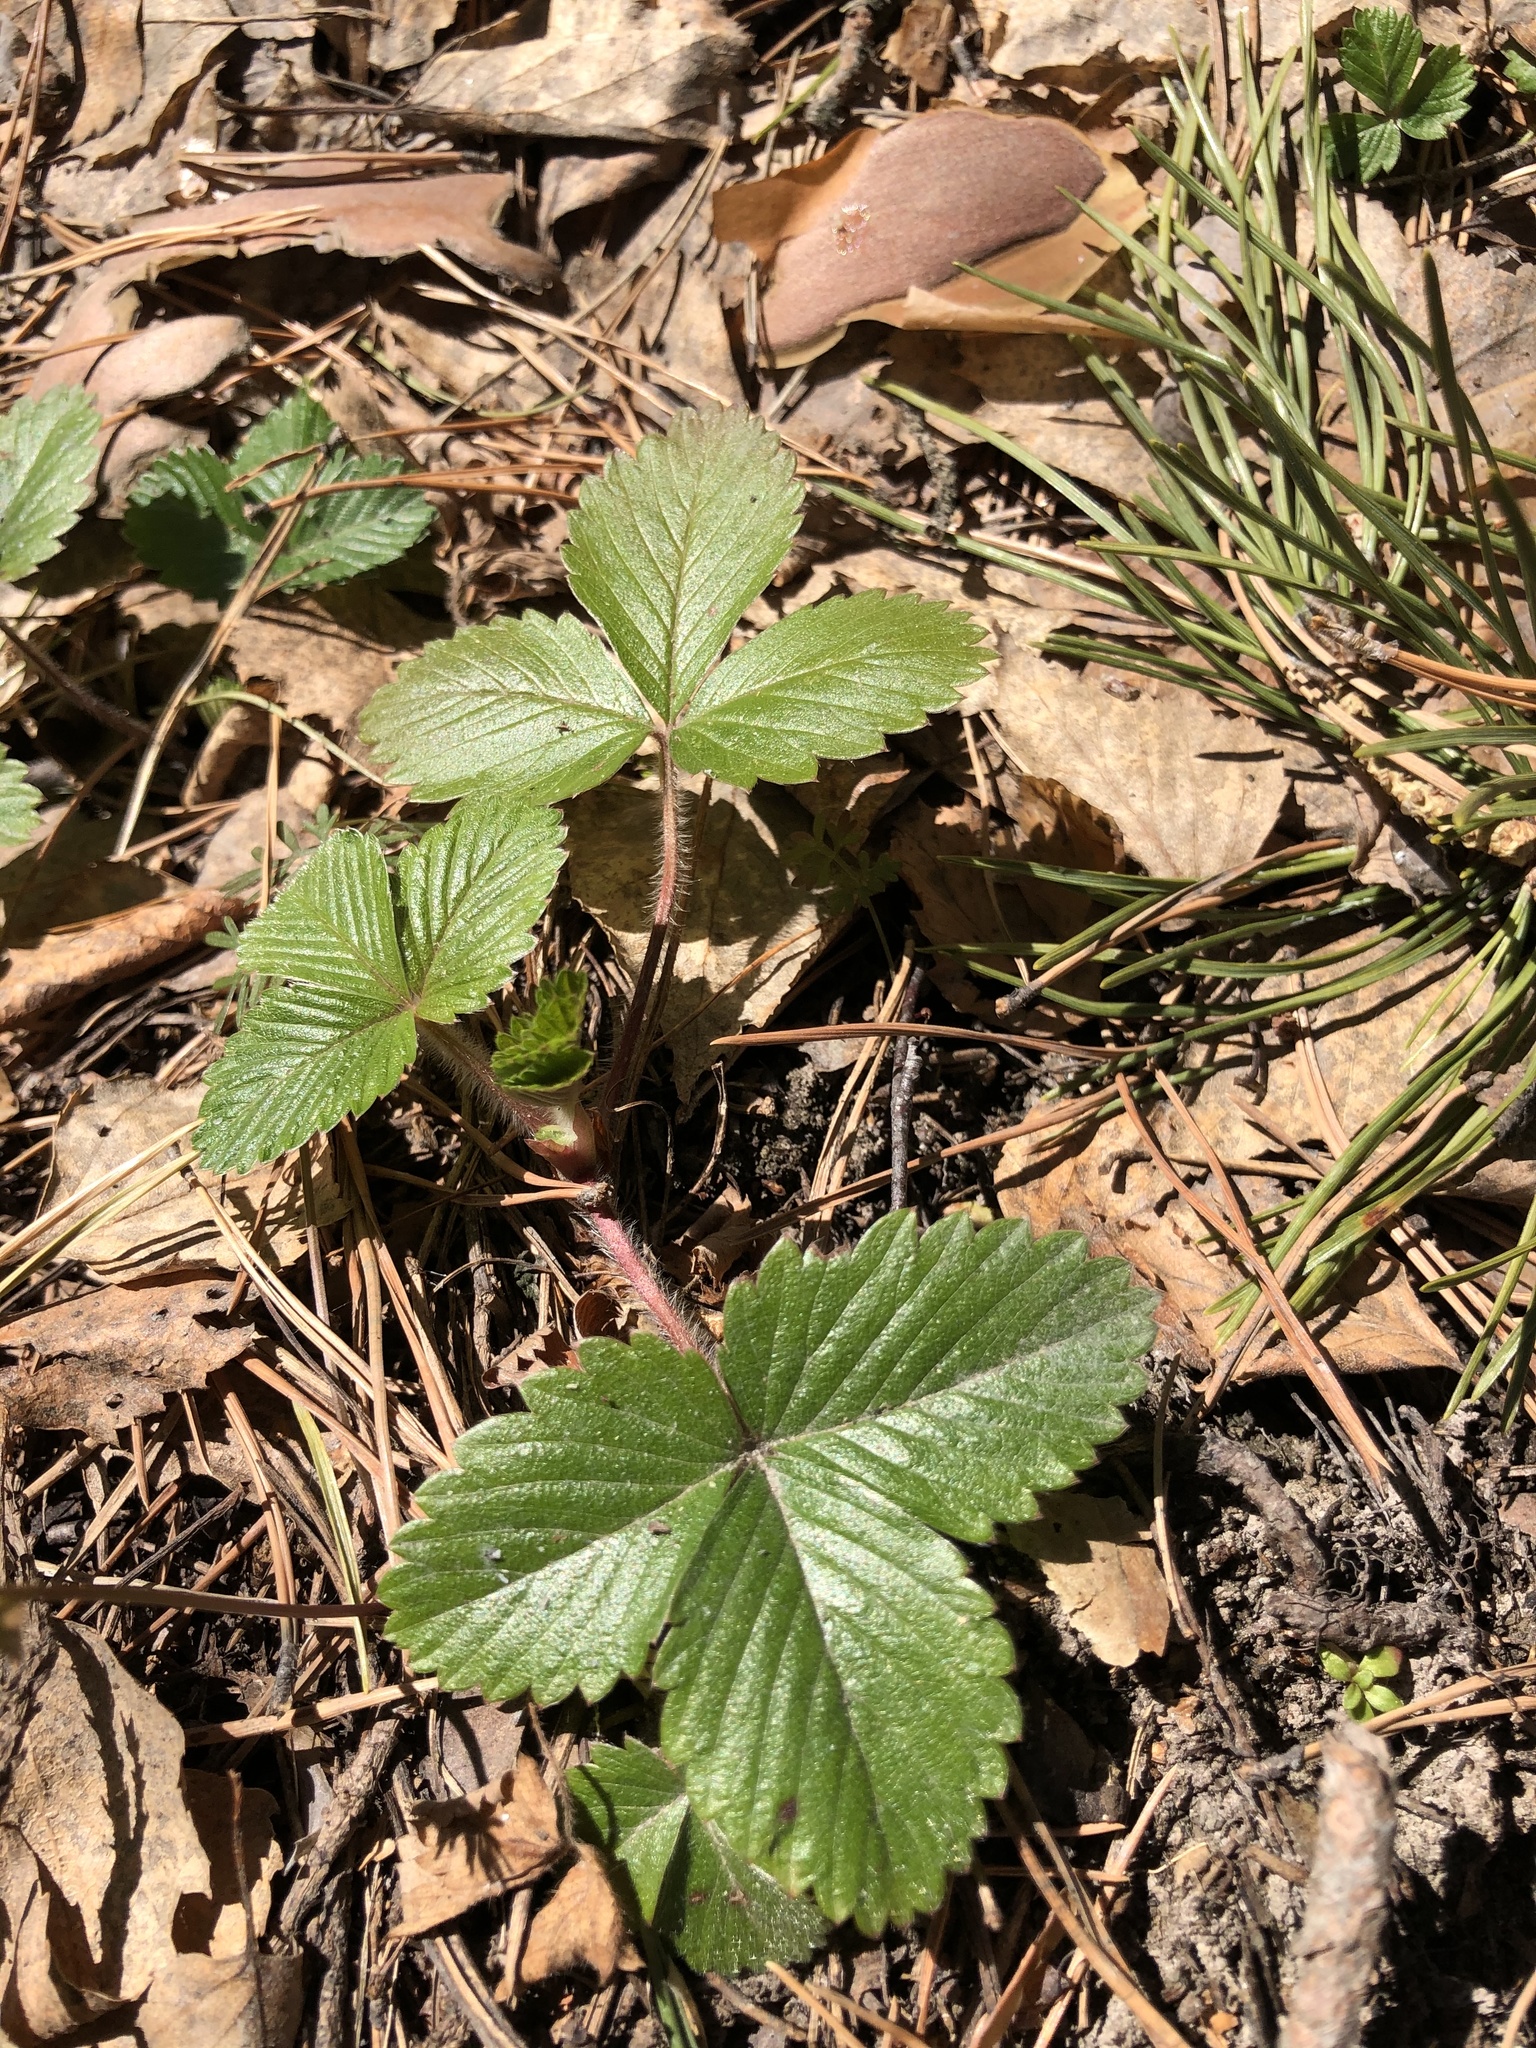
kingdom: Plantae
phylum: Tracheophyta
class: Magnoliopsida
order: Rosales
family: Rosaceae
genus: Fragaria
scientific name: Fragaria vesca
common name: Wild strawberry
